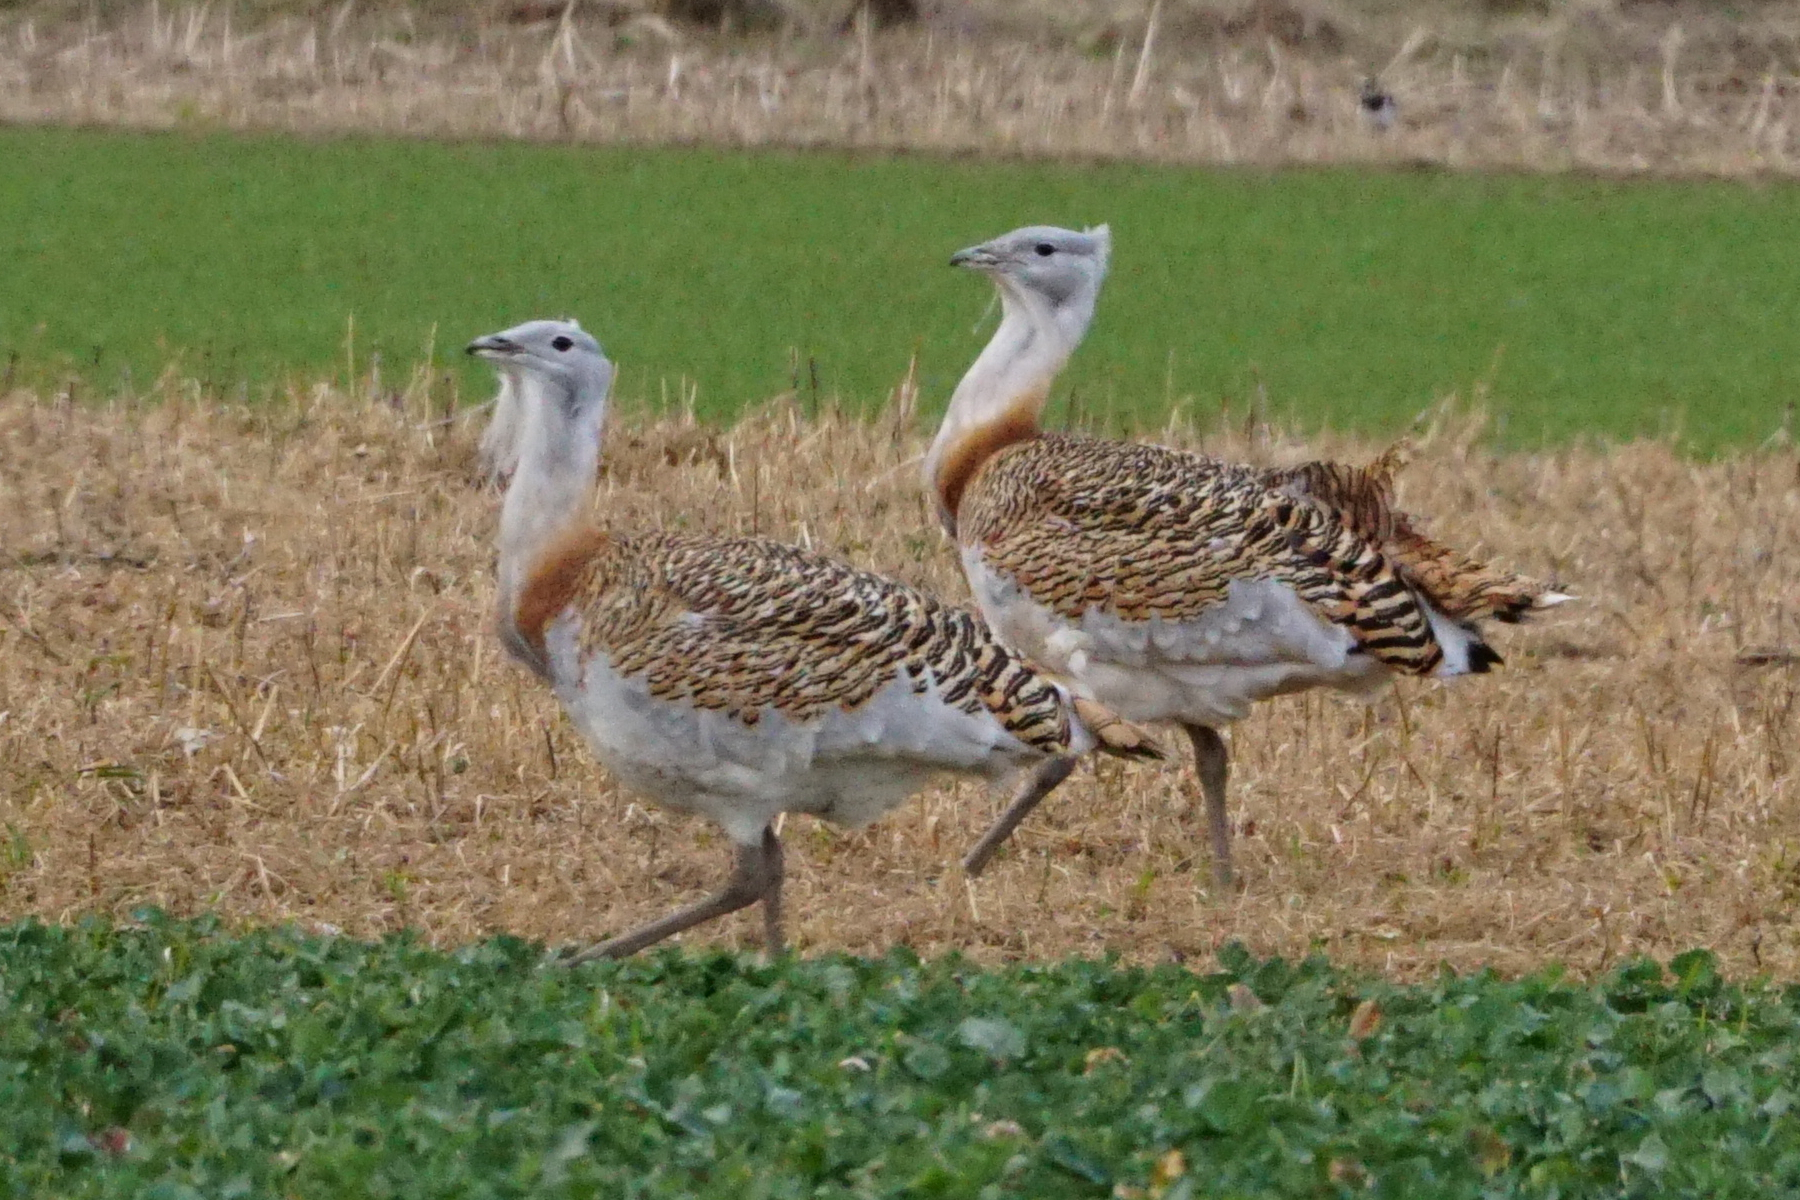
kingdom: Animalia
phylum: Chordata
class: Aves
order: Otidiformes
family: Otididae
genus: Otis
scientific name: Otis tarda
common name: Great bustard
